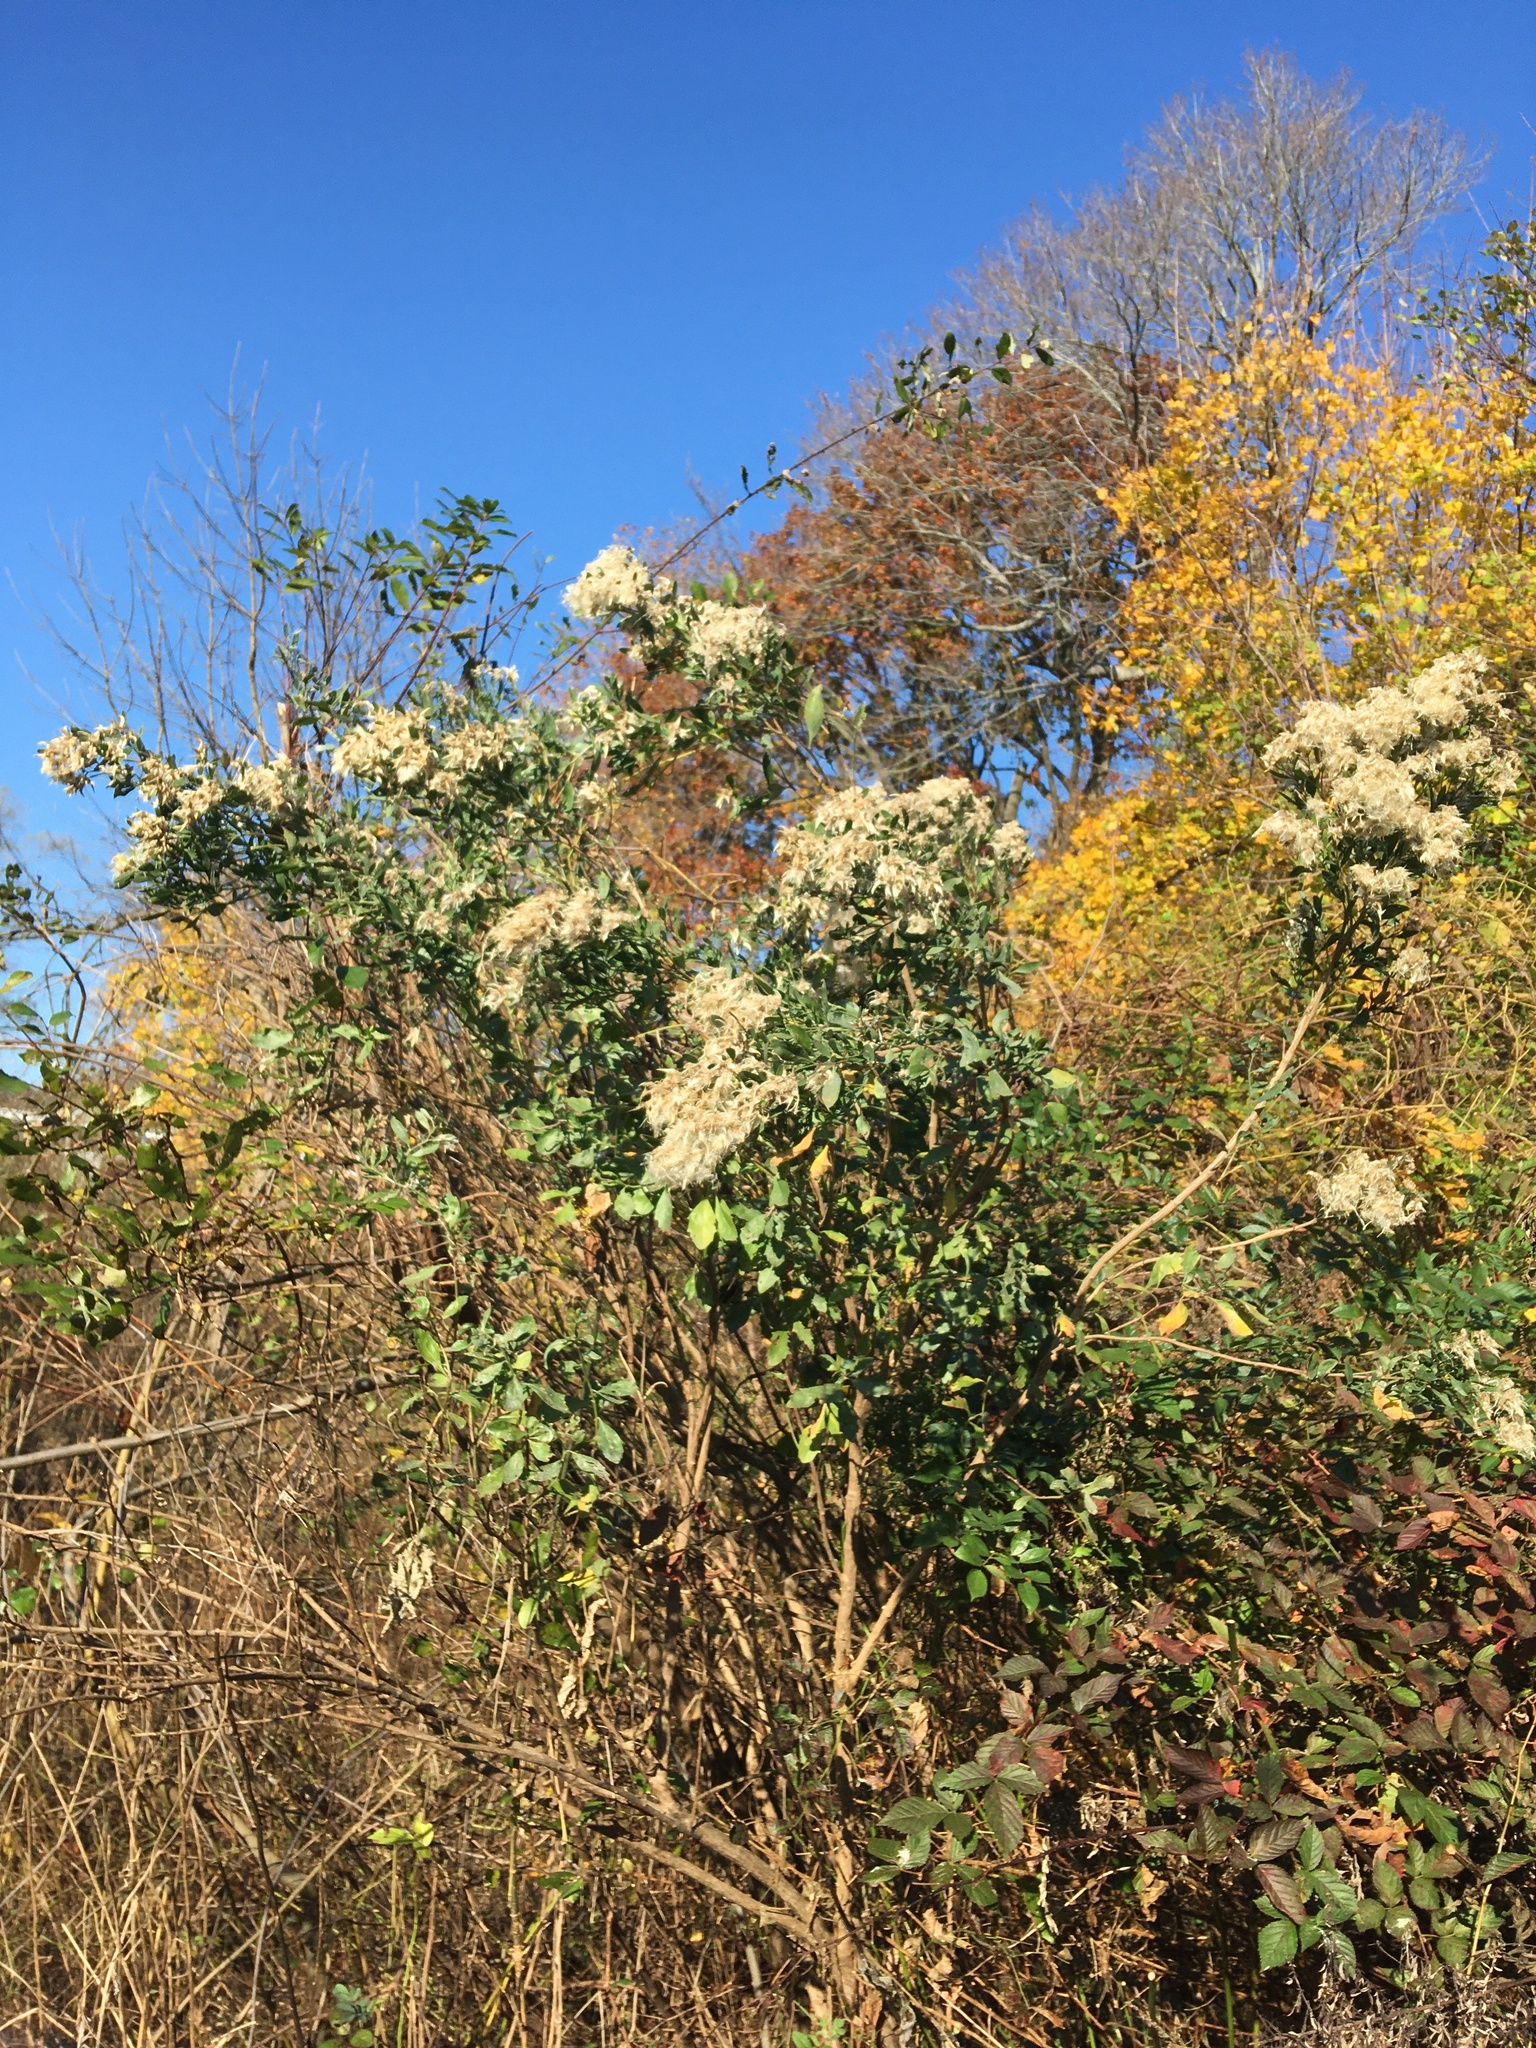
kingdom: Plantae
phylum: Tracheophyta
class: Magnoliopsida
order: Asterales
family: Asteraceae
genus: Baccharis
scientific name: Baccharis halimifolia
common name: Eastern baccharis
